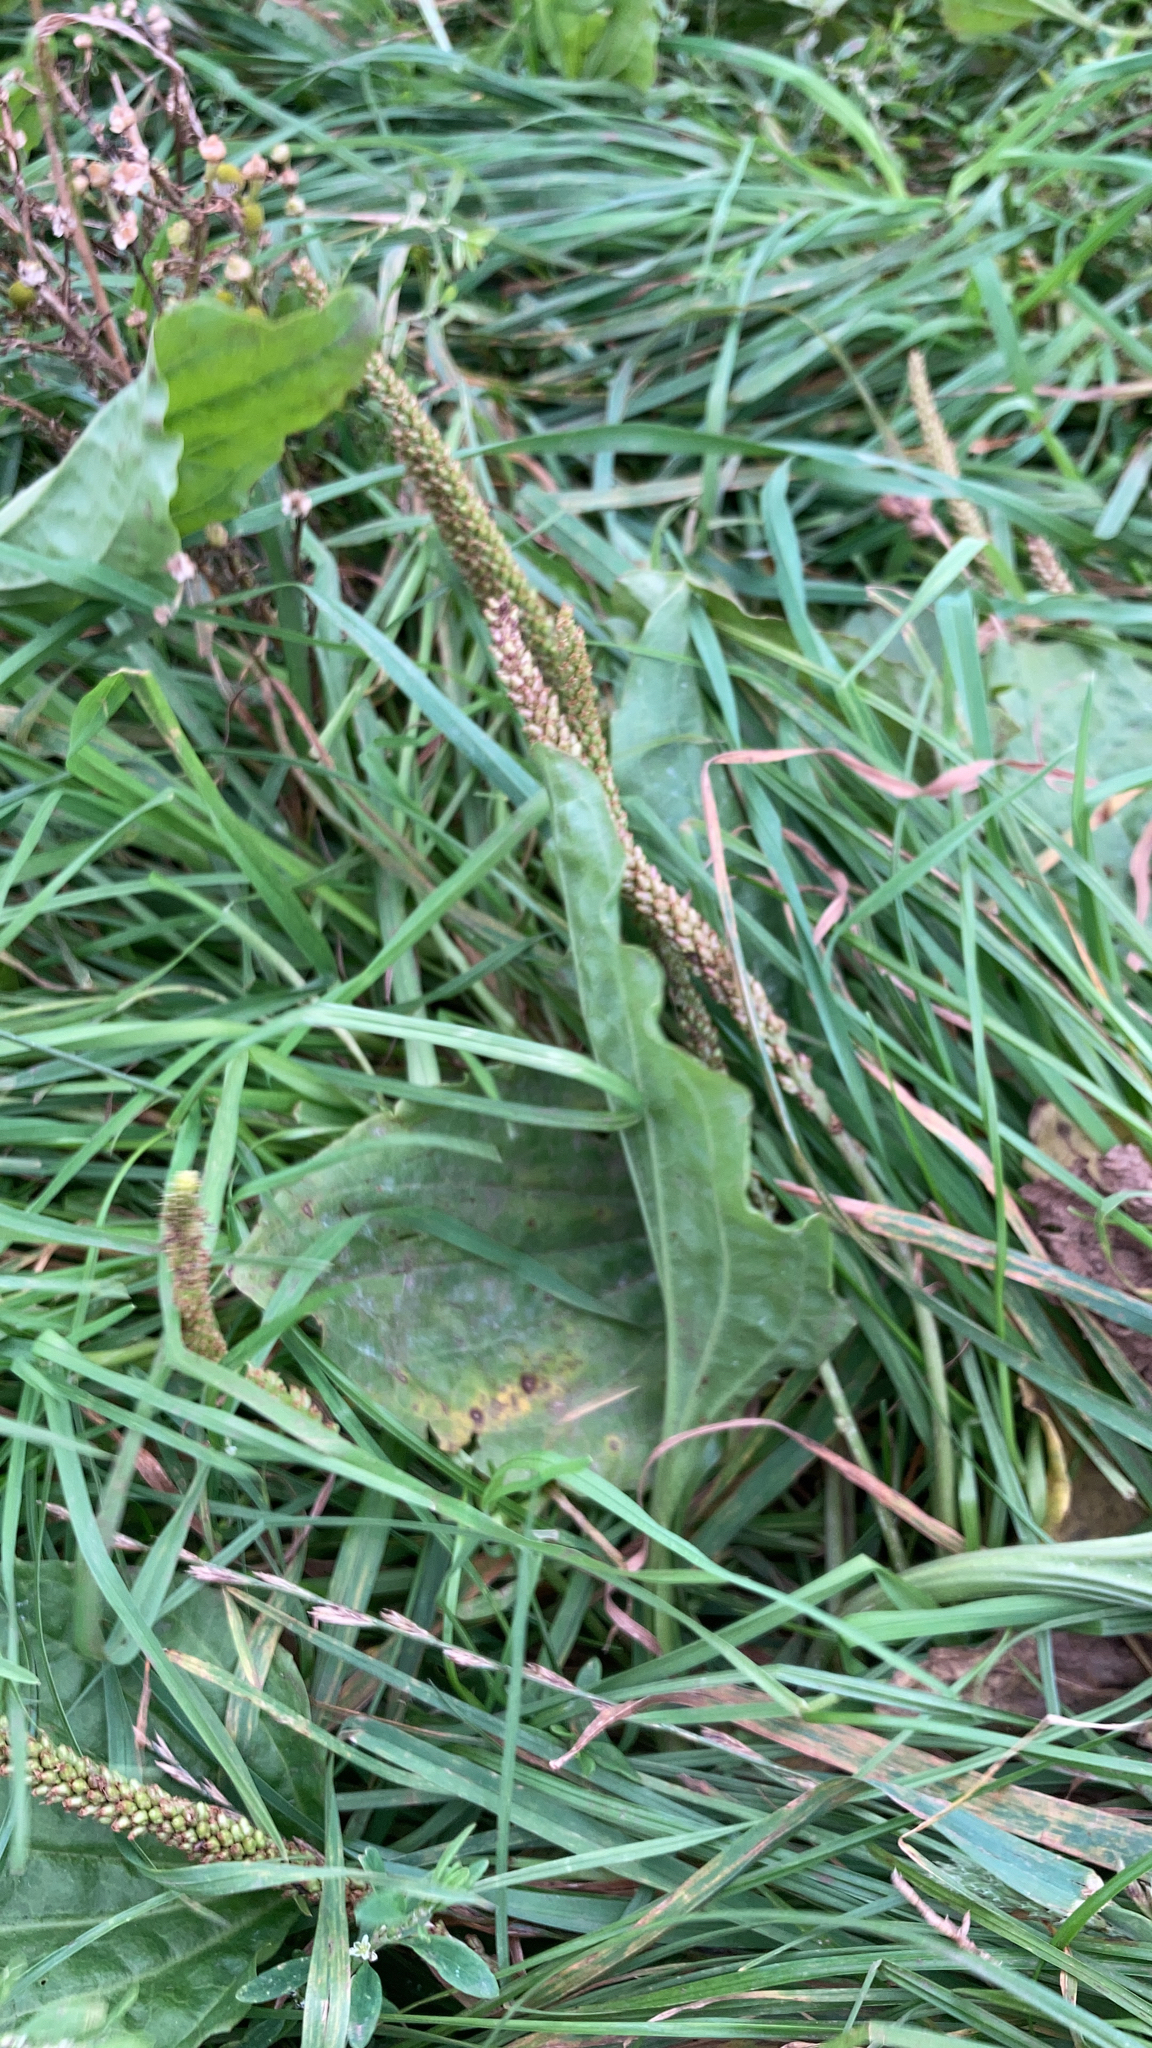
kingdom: Plantae
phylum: Tracheophyta
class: Magnoliopsida
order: Lamiales
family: Plantaginaceae
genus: Plantago
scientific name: Plantago major
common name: Common plantain
